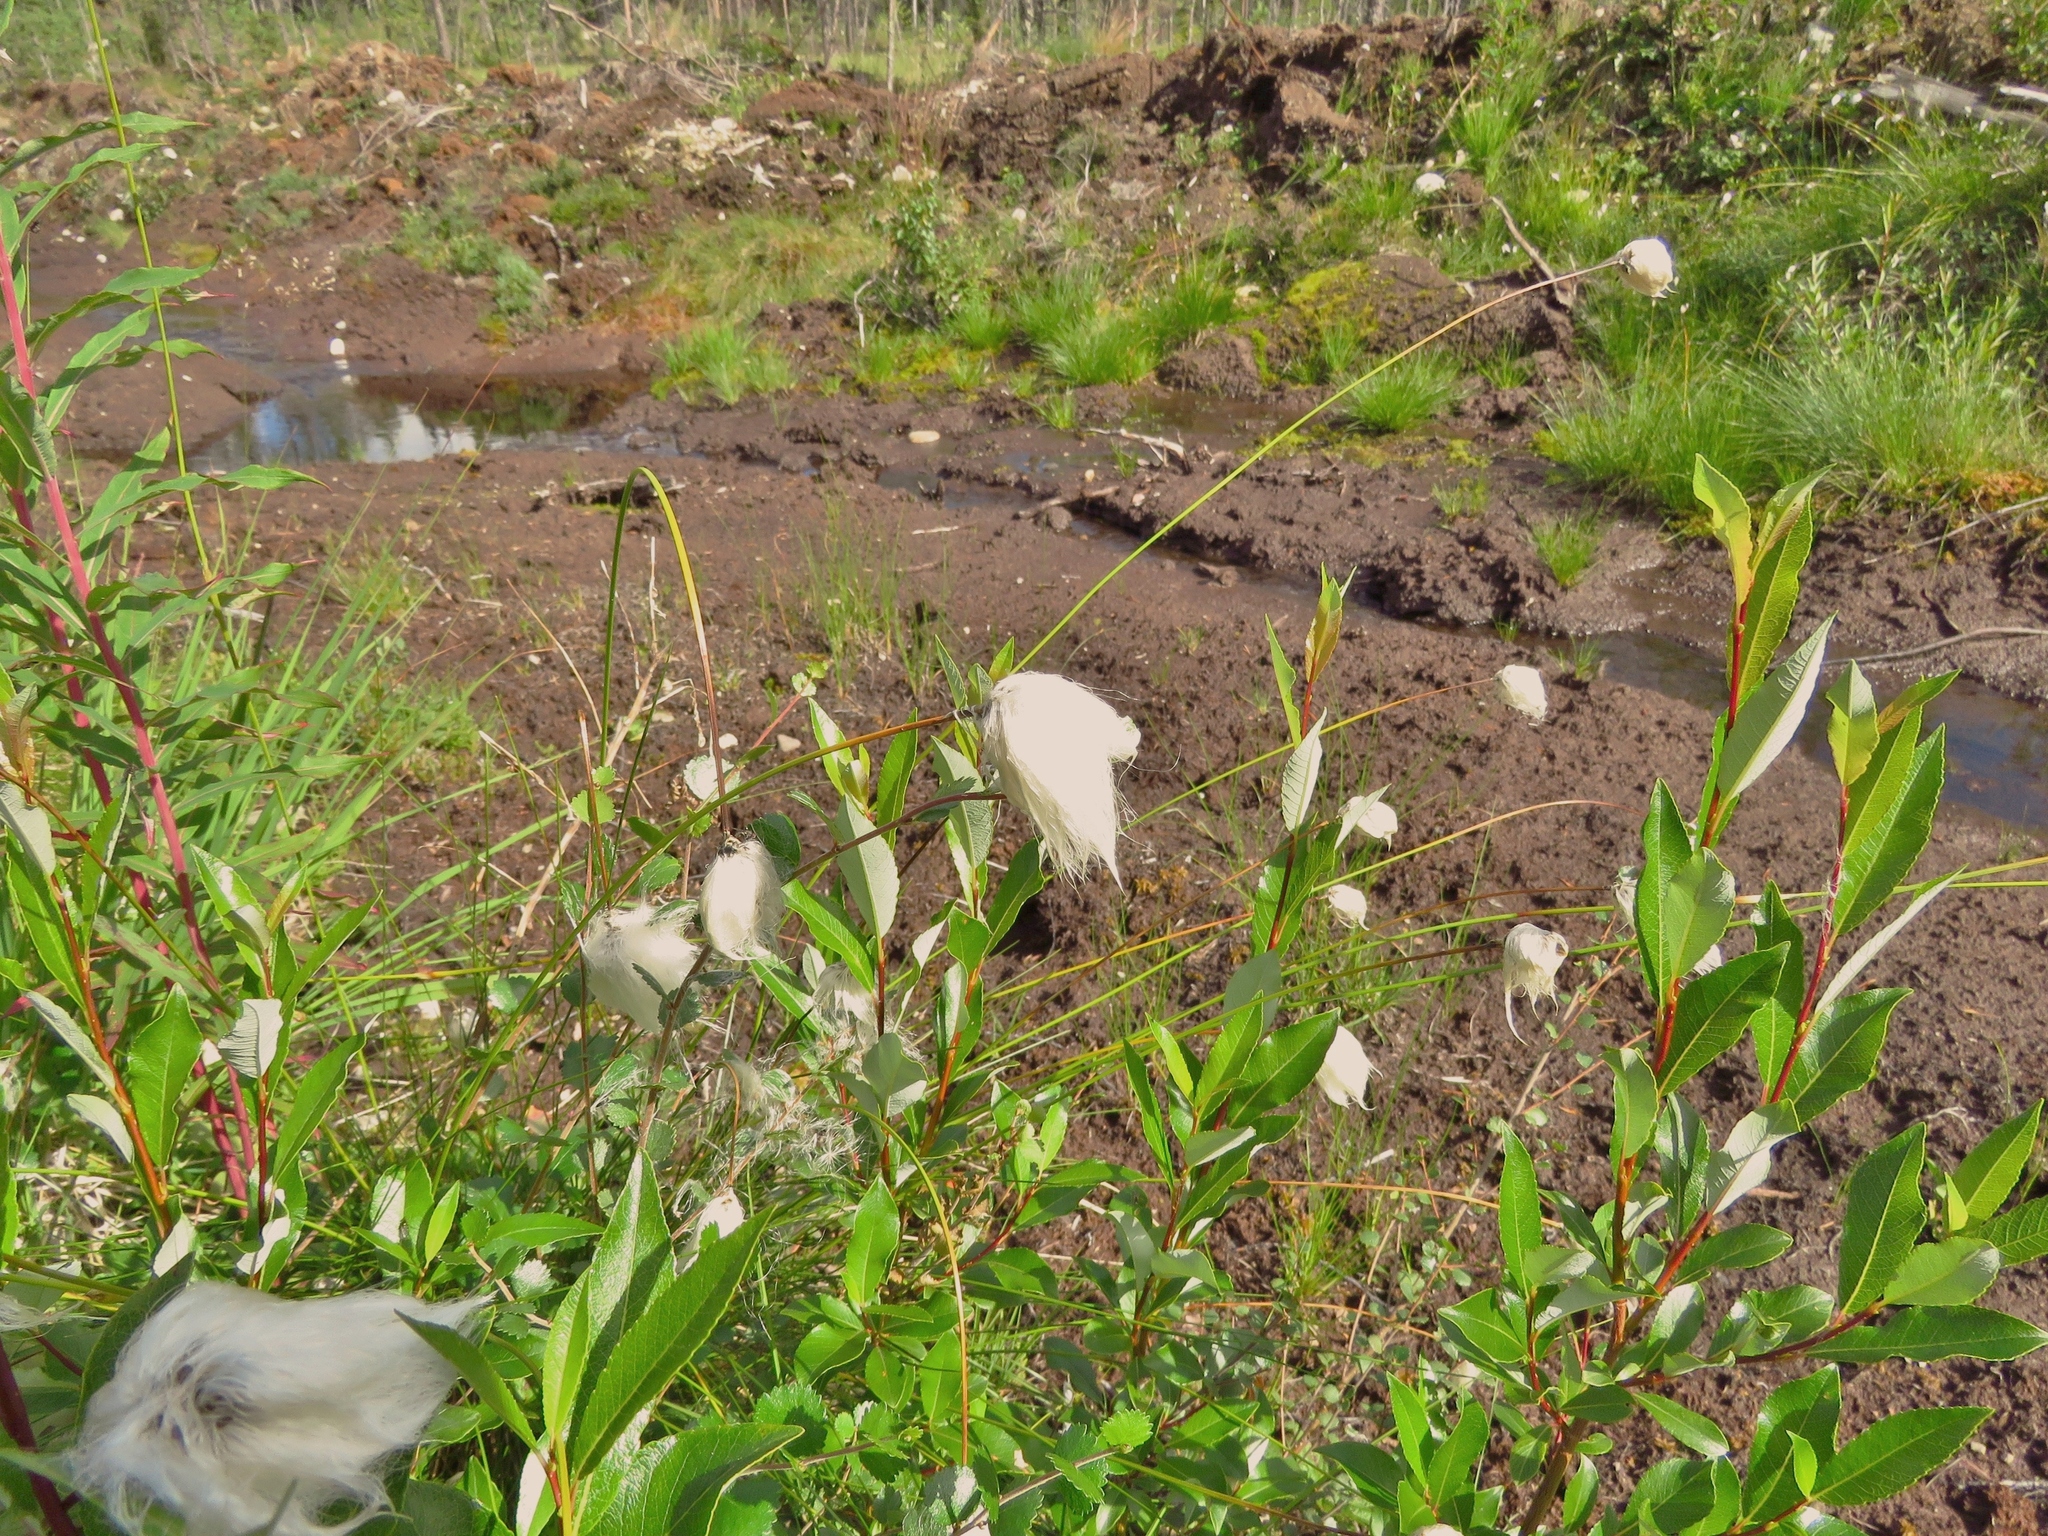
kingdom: Plantae
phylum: Tracheophyta
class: Liliopsida
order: Poales
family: Cyperaceae
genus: Eriophorum
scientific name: Eriophorum angustifolium
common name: Common cottongrass
